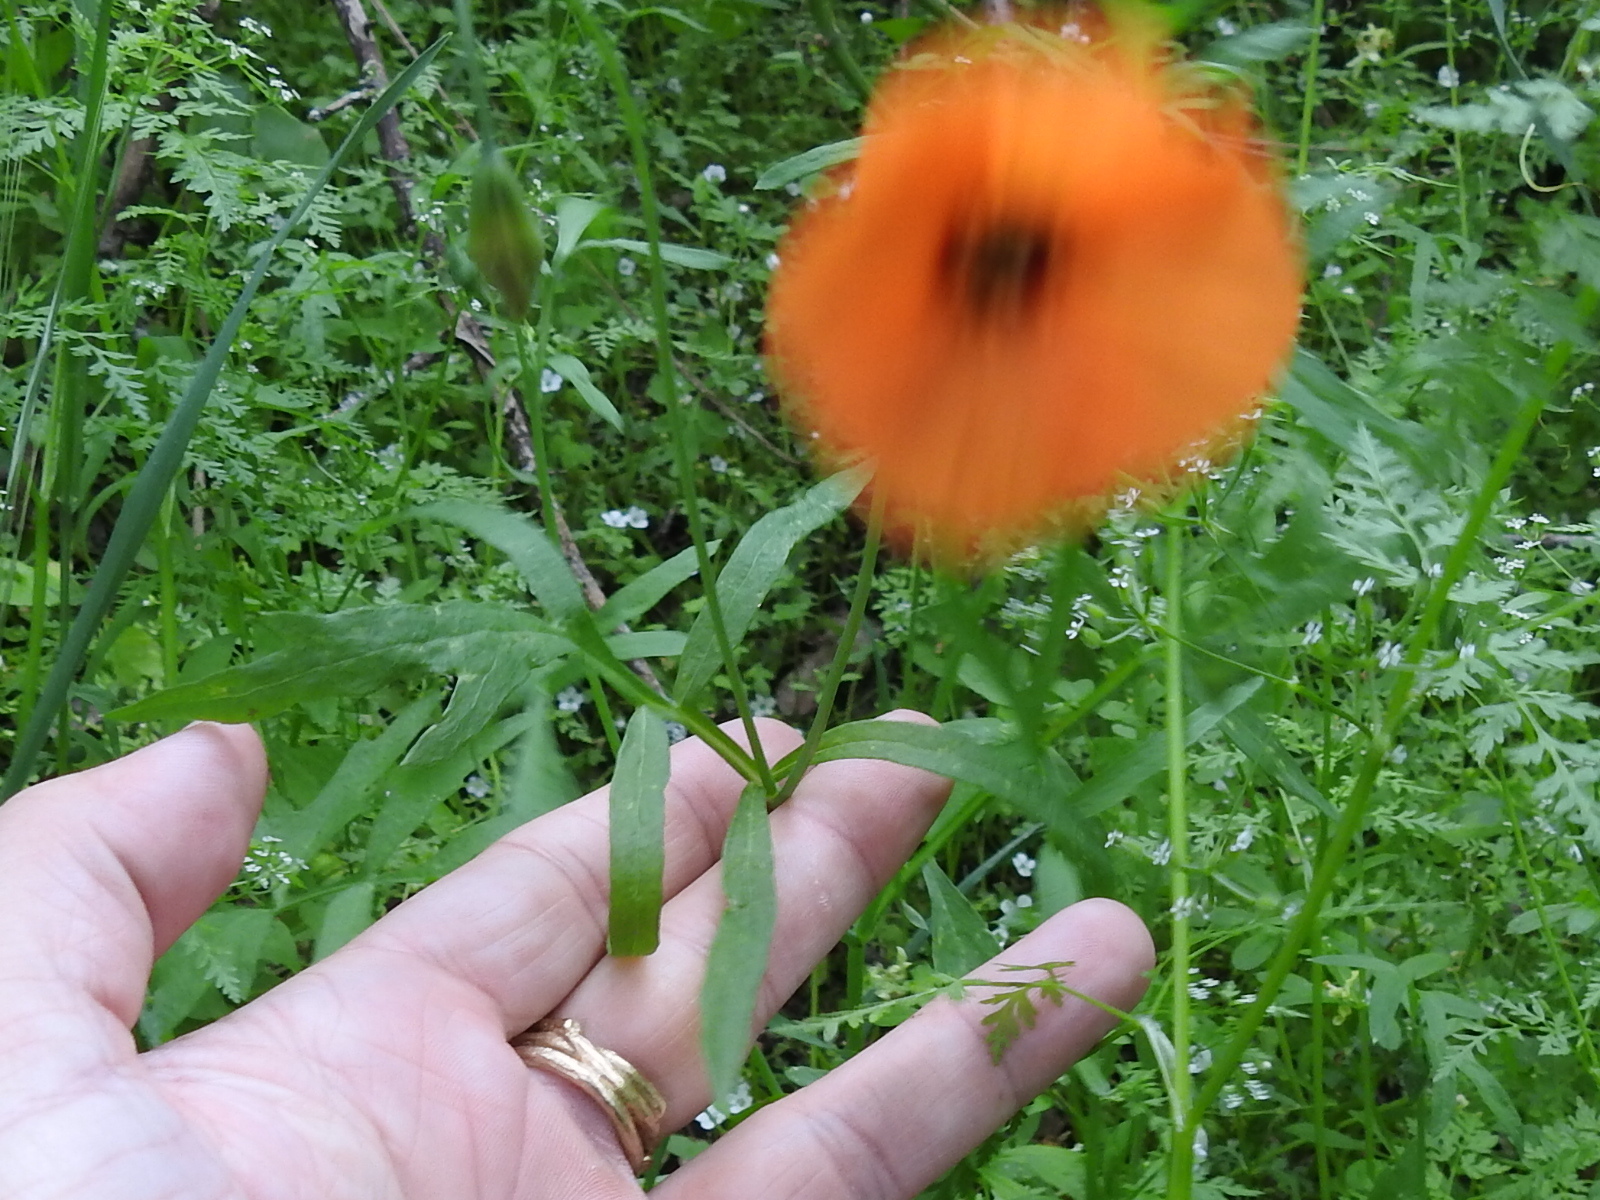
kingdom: Plantae
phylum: Tracheophyta
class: Magnoliopsida
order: Ranunculales
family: Papaveraceae
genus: Stylomecon
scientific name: Stylomecon heterophylla
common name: Flaming-poppy
